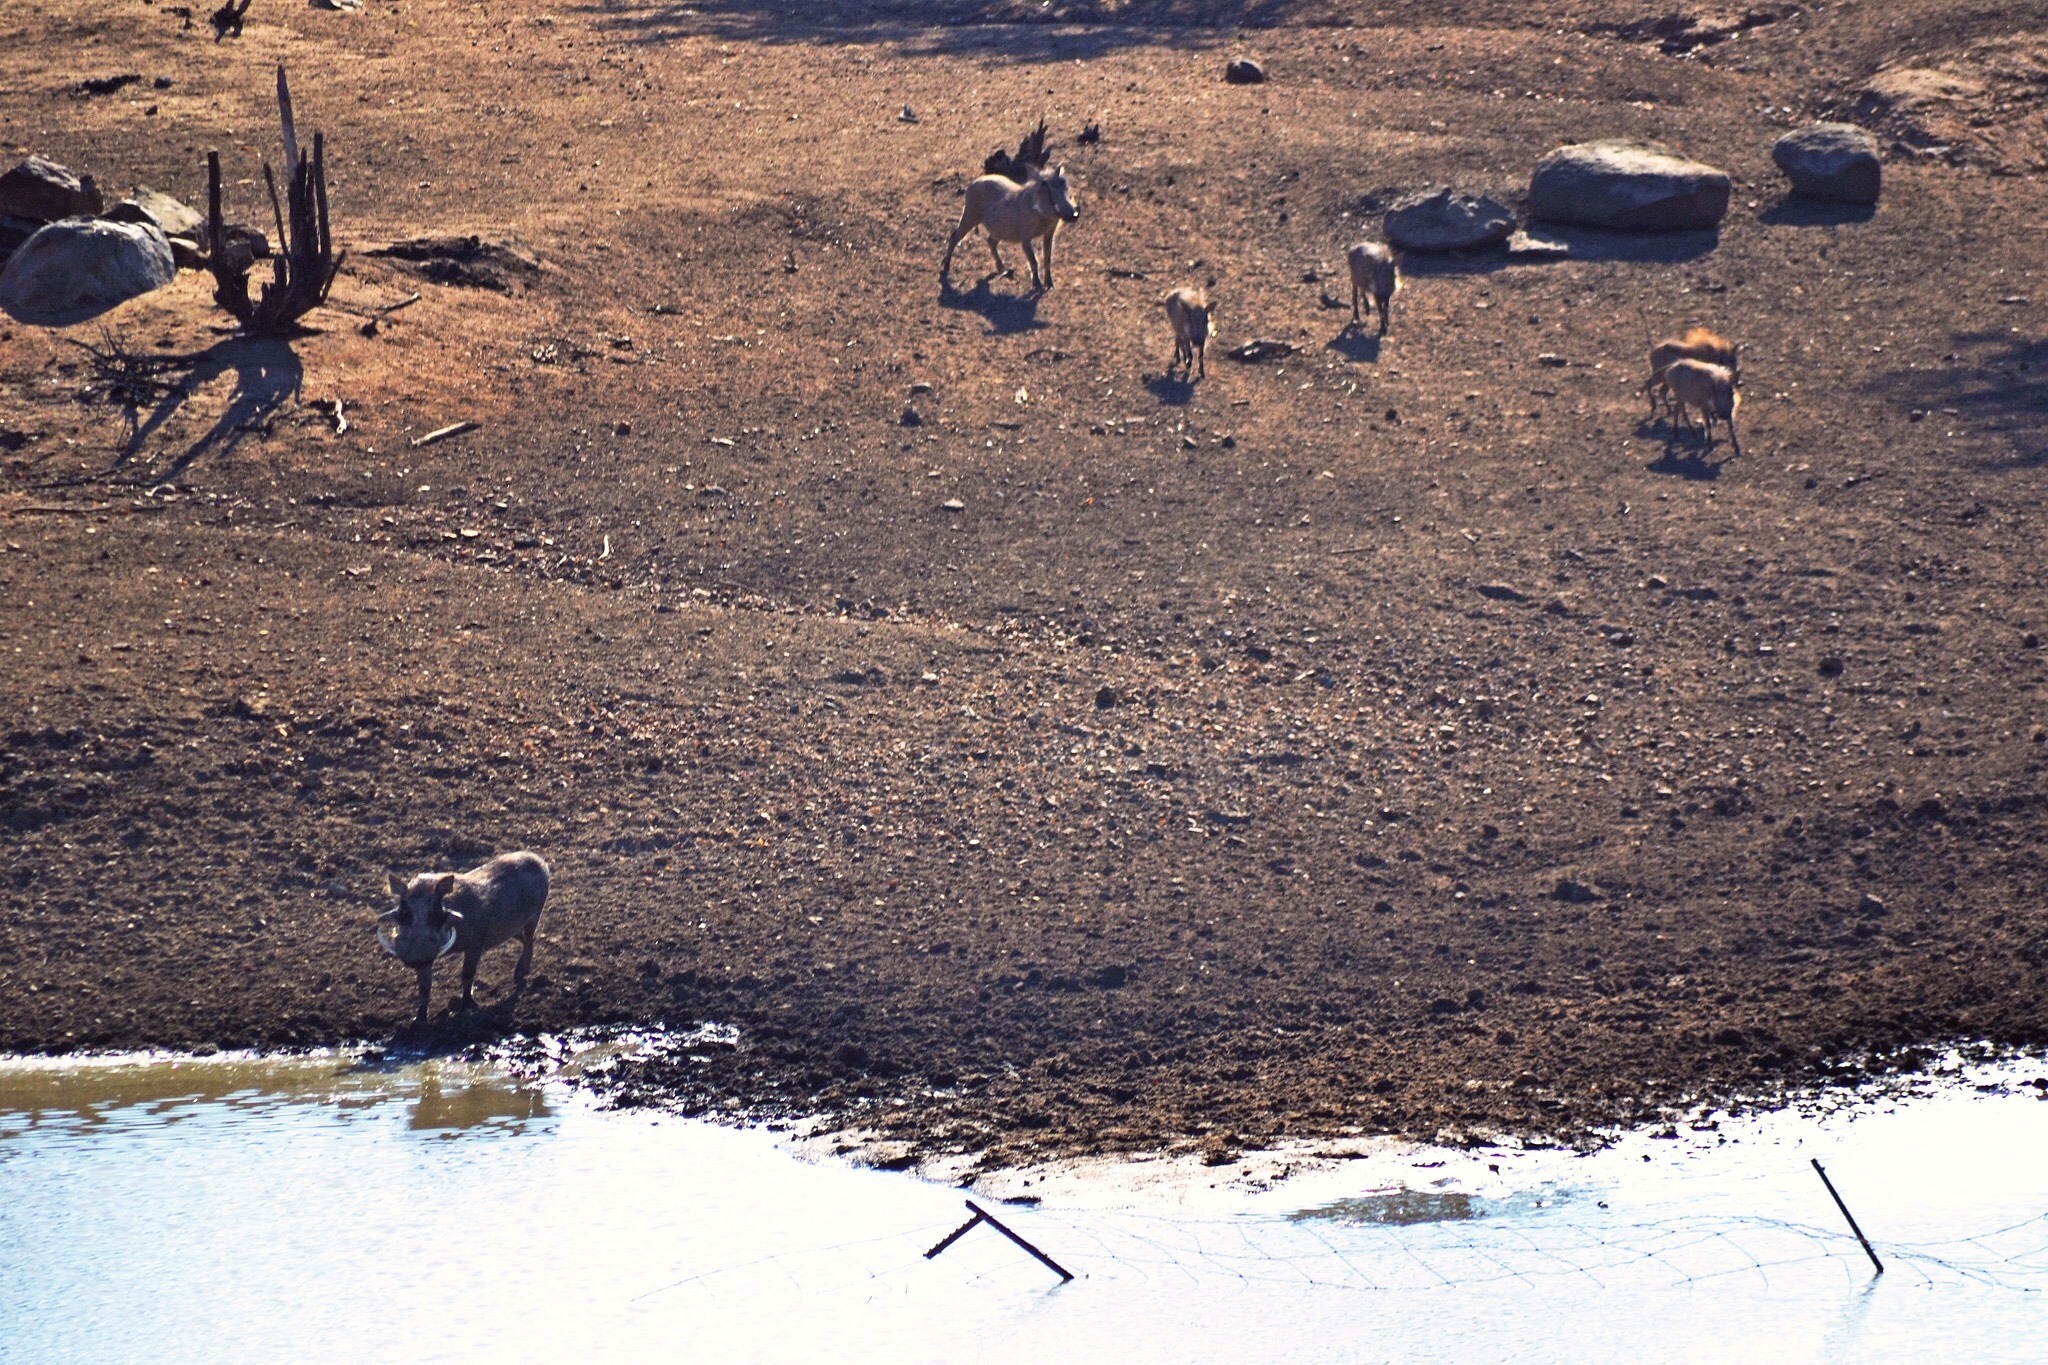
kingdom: Animalia
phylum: Chordata
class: Mammalia
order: Artiodactyla
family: Suidae
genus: Phacochoerus
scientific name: Phacochoerus africanus
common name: Common warthog
